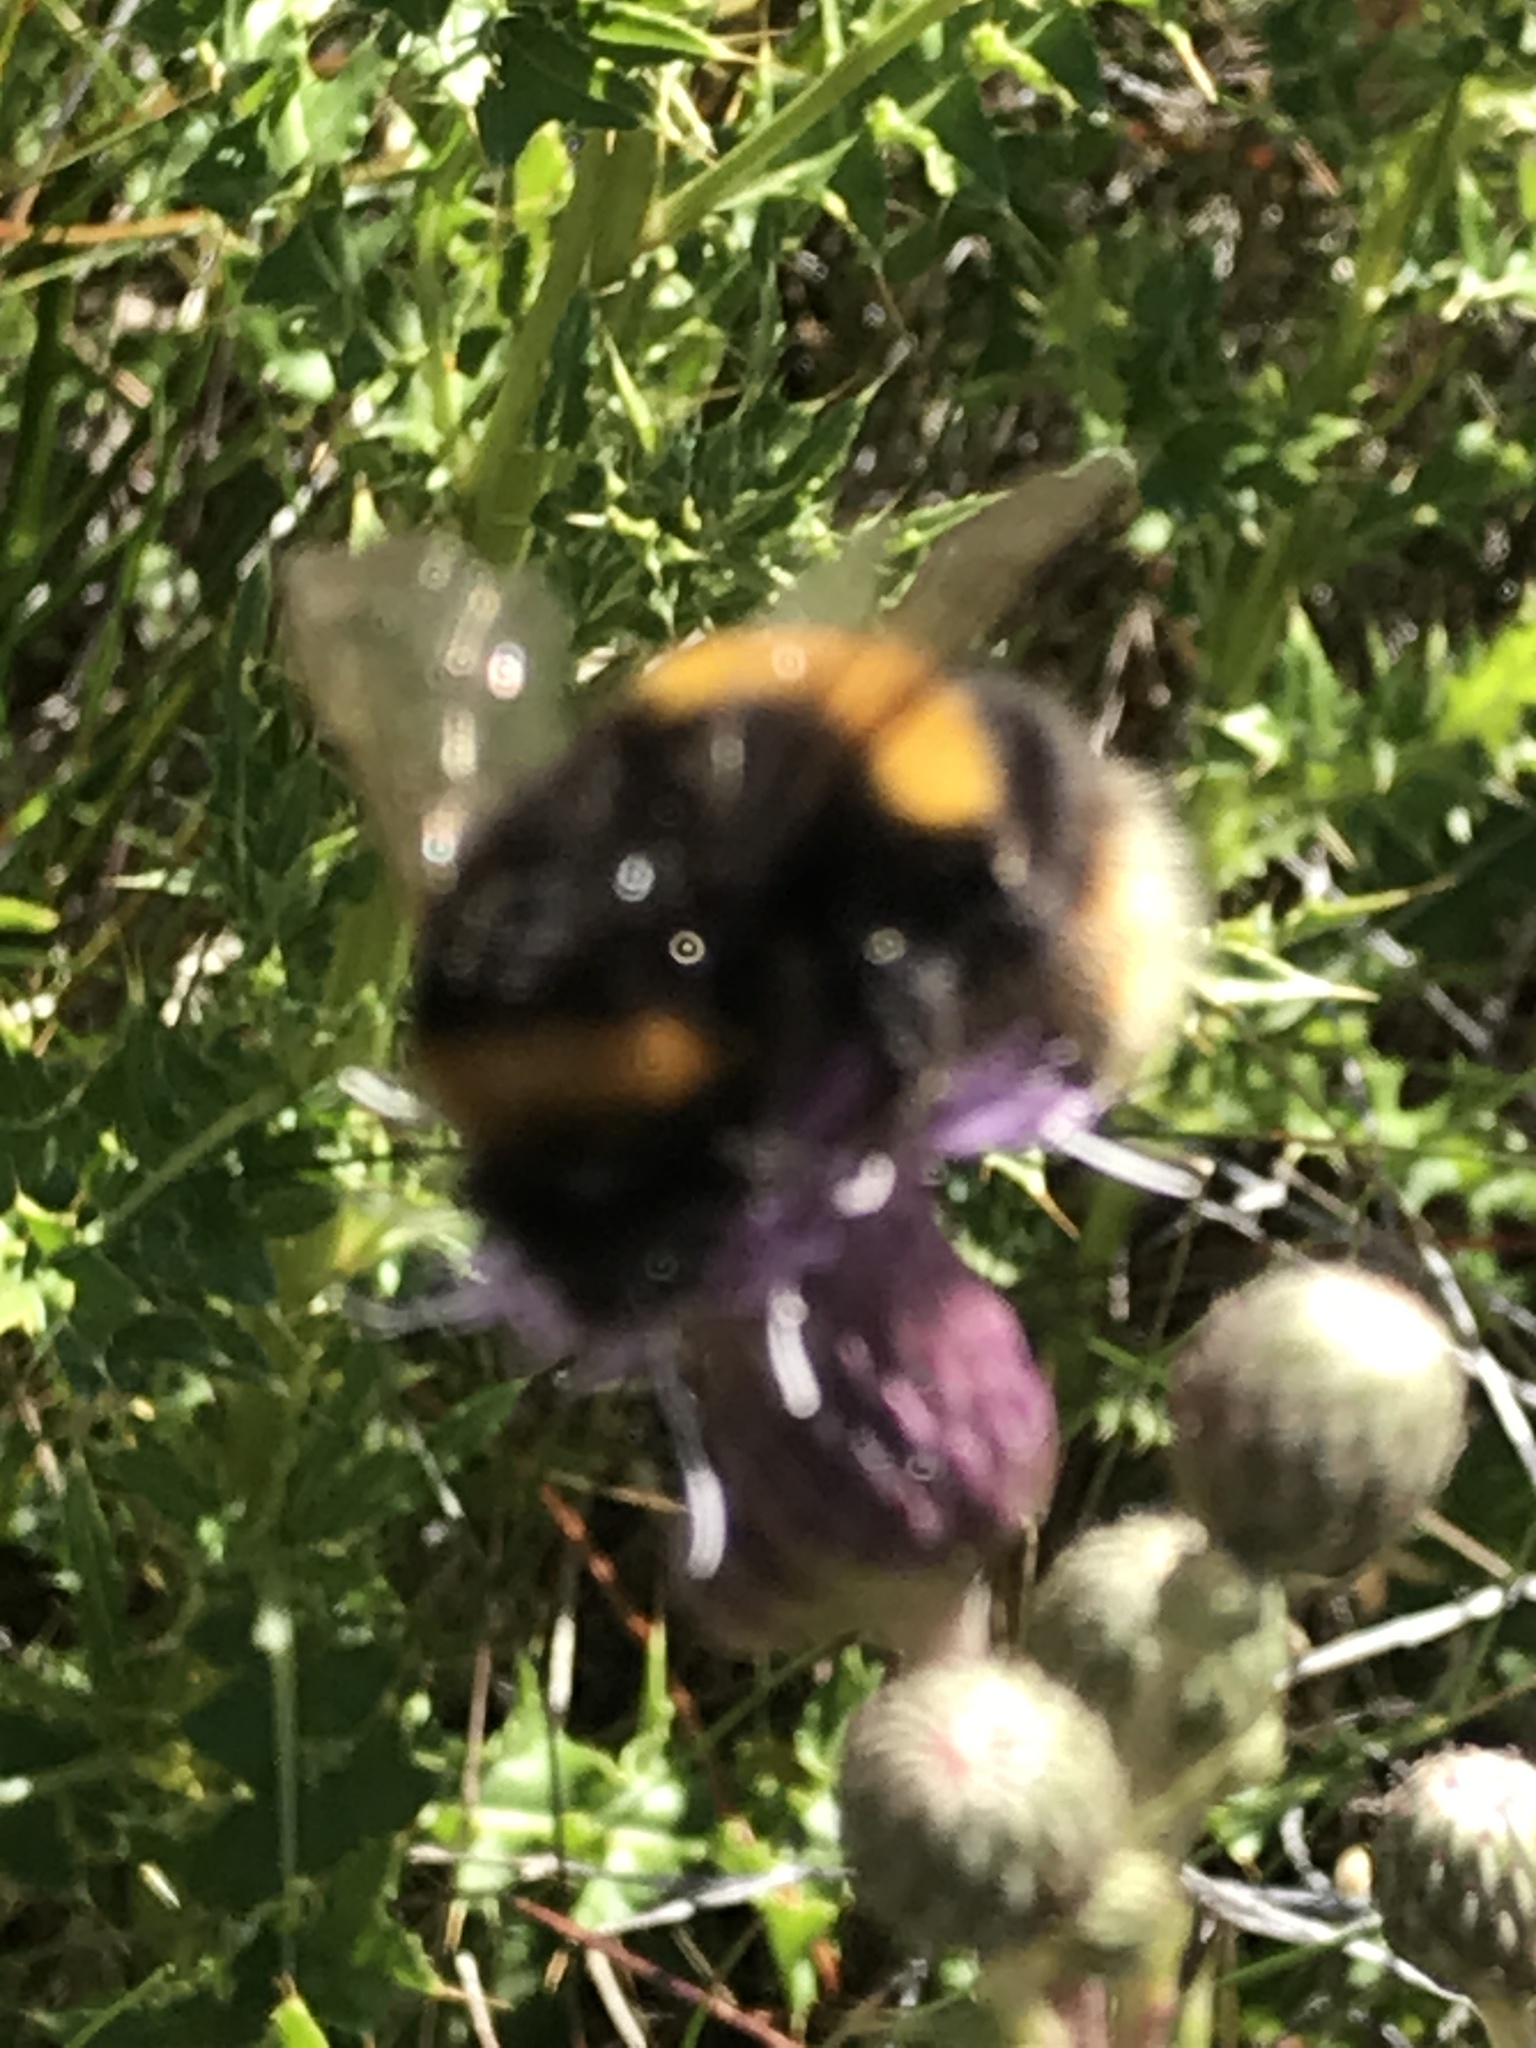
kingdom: Animalia
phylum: Arthropoda
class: Insecta
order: Hymenoptera
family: Apidae
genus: Bombus
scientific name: Bombus terrestris
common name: Buff-tailed bumblebee
